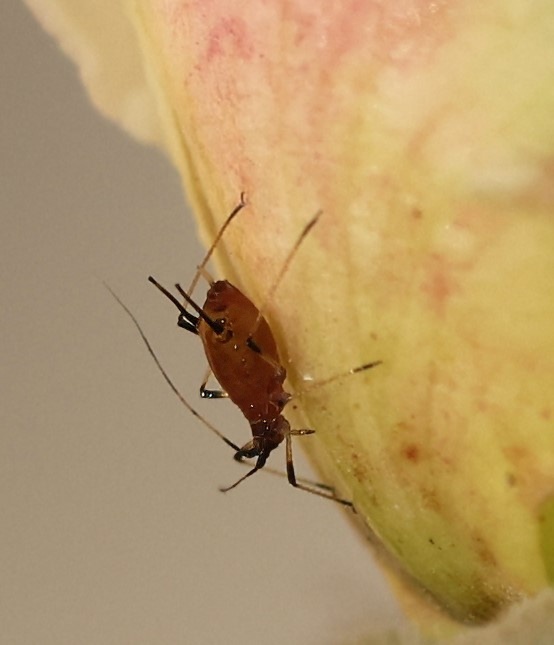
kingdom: Animalia
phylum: Arthropoda
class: Insecta
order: Hemiptera
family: Aphididae
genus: Macrosiphum
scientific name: Macrosiphum rosae
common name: Rose aphid
